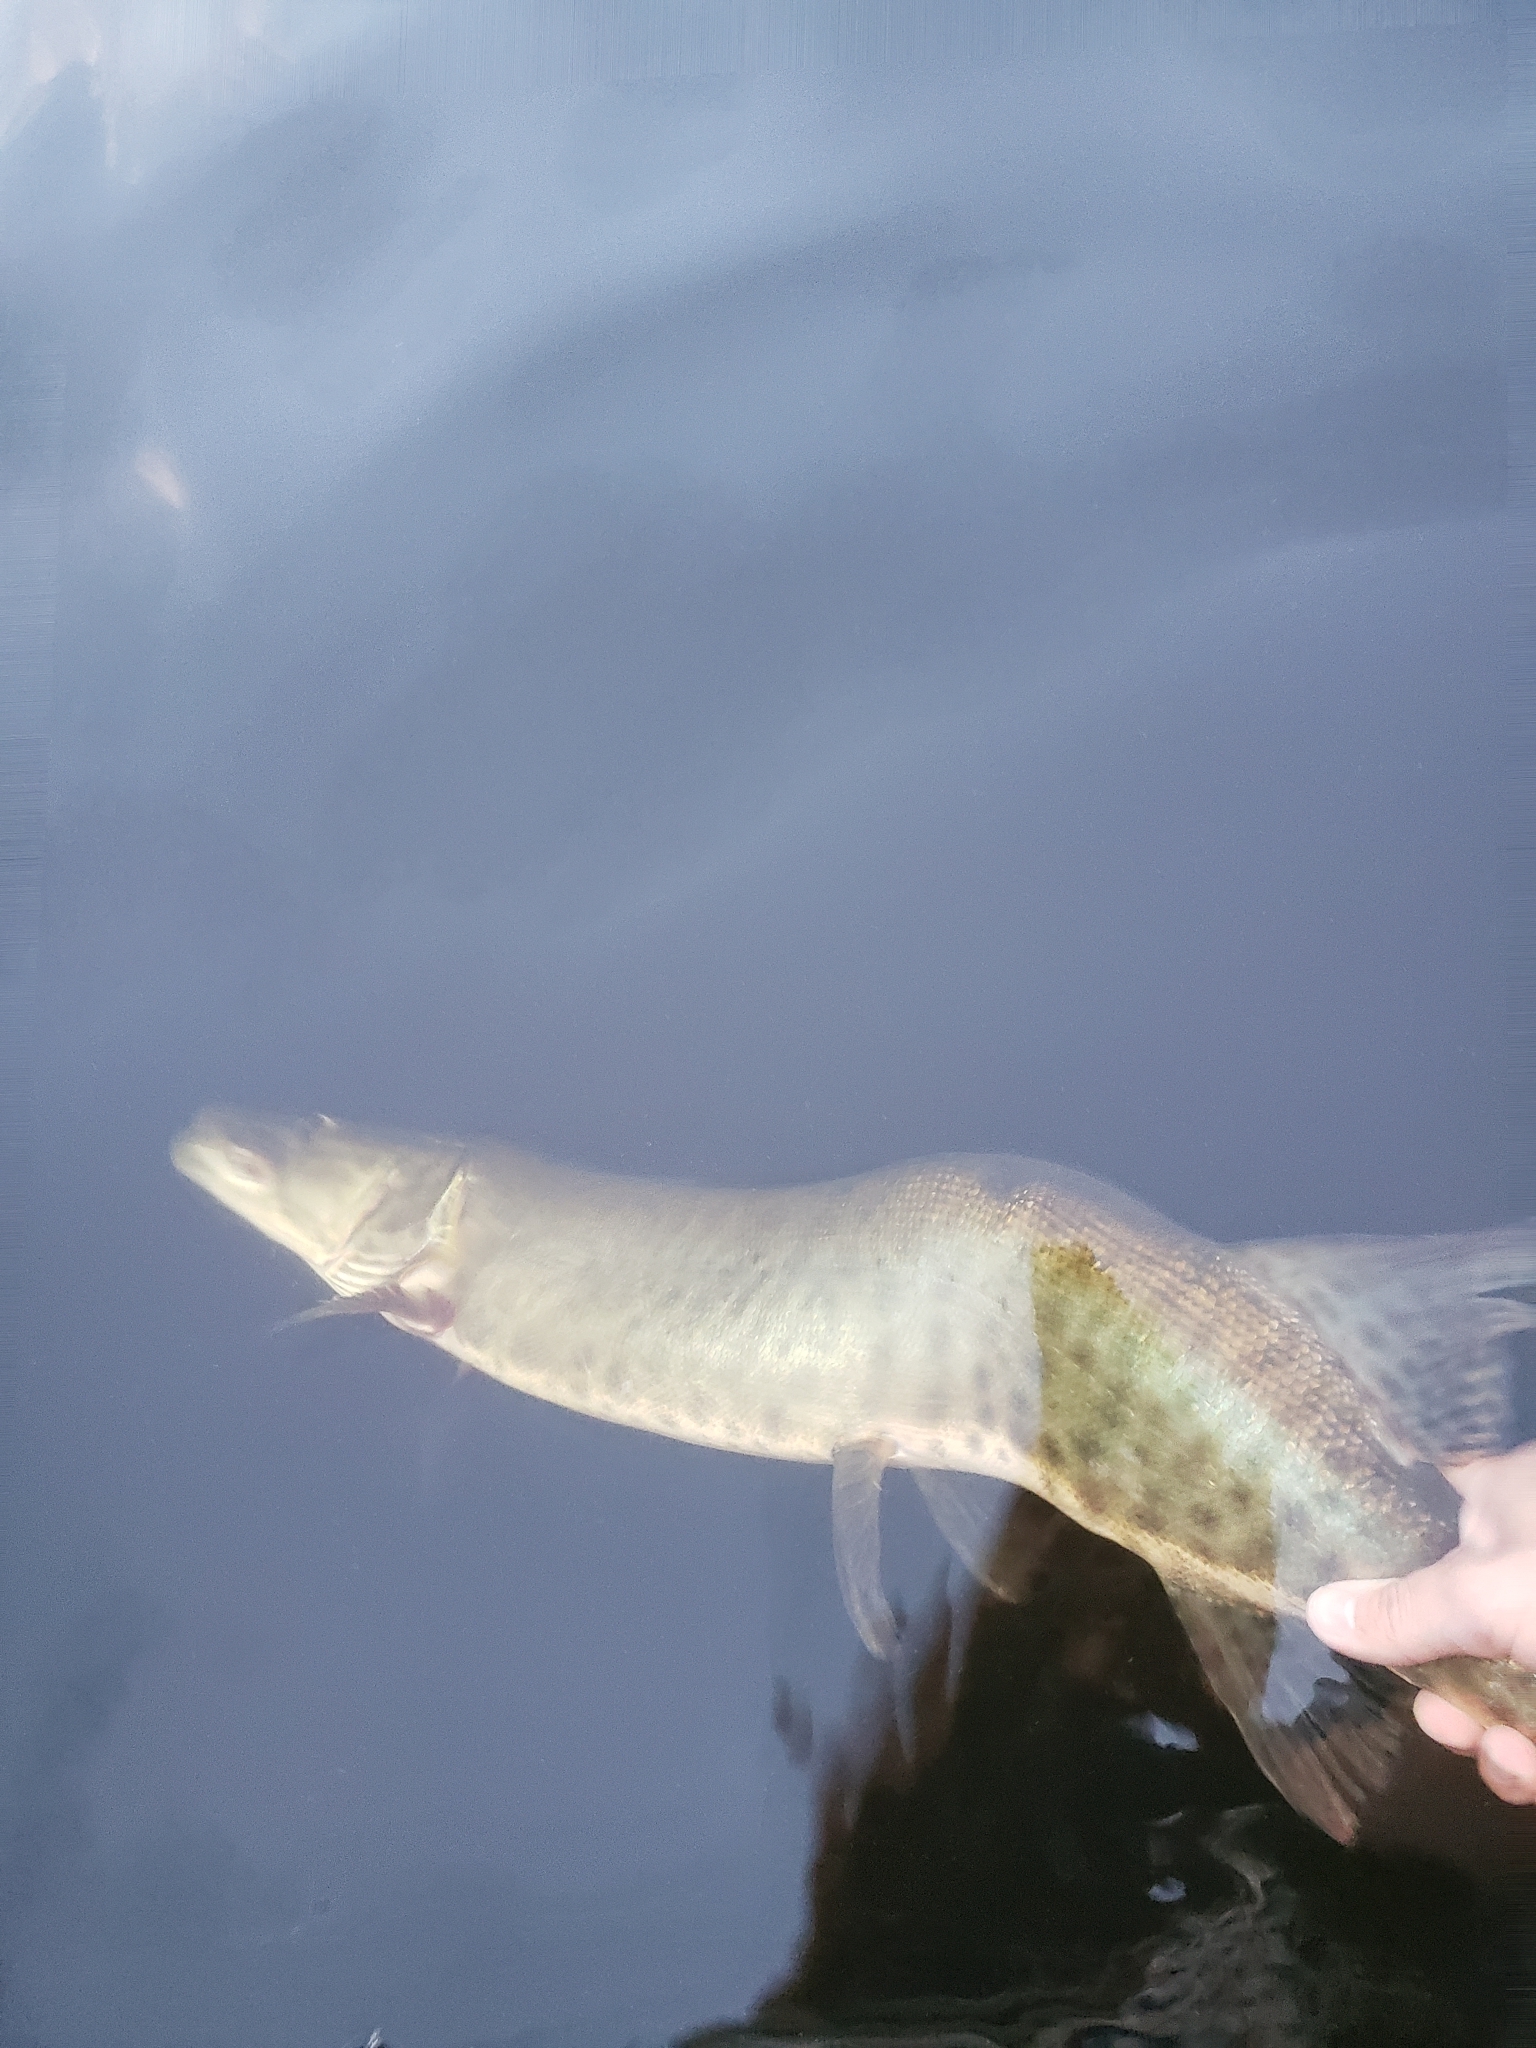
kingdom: Animalia
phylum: Chordata
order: Esociformes
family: Esocidae
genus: Esox
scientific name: Esox masquinongy
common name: Muskellunge
